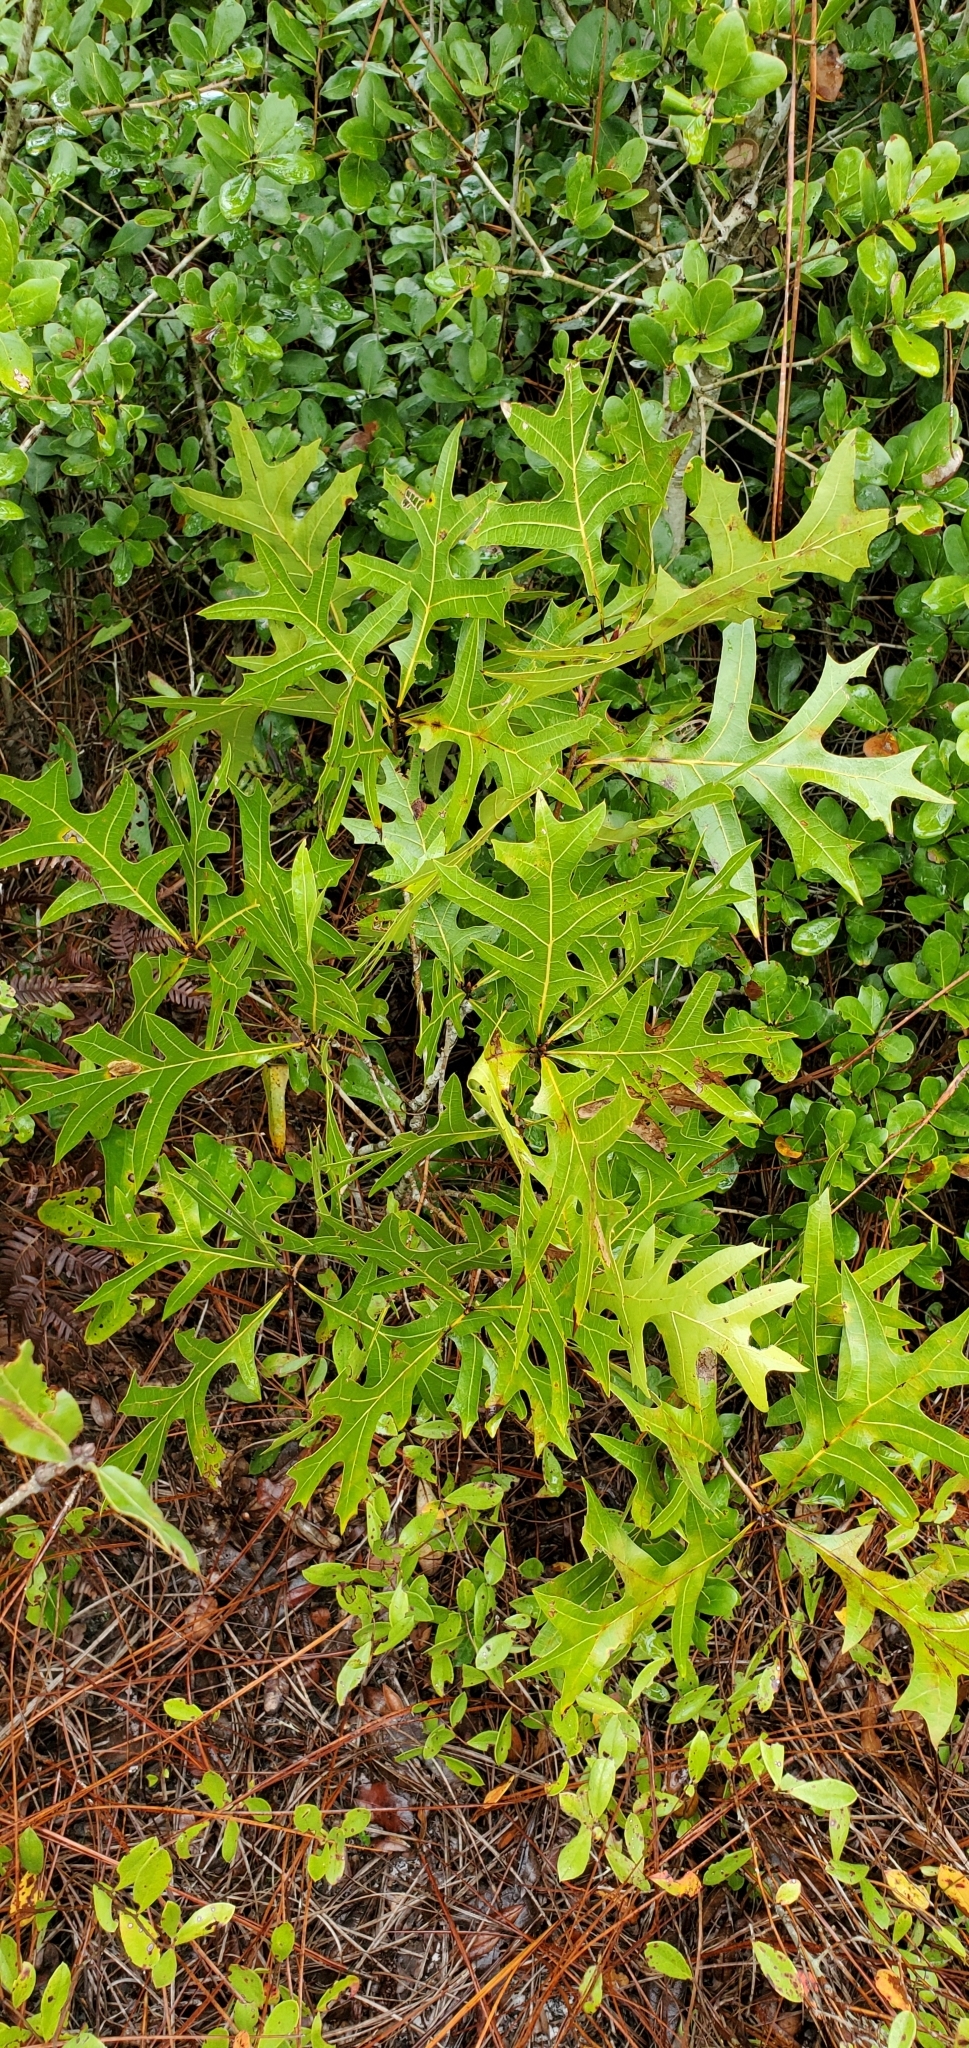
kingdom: Plantae
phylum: Tracheophyta
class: Magnoliopsida
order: Fagales
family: Fagaceae
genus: Quercus
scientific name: Quercus laevis
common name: Turkey oak
